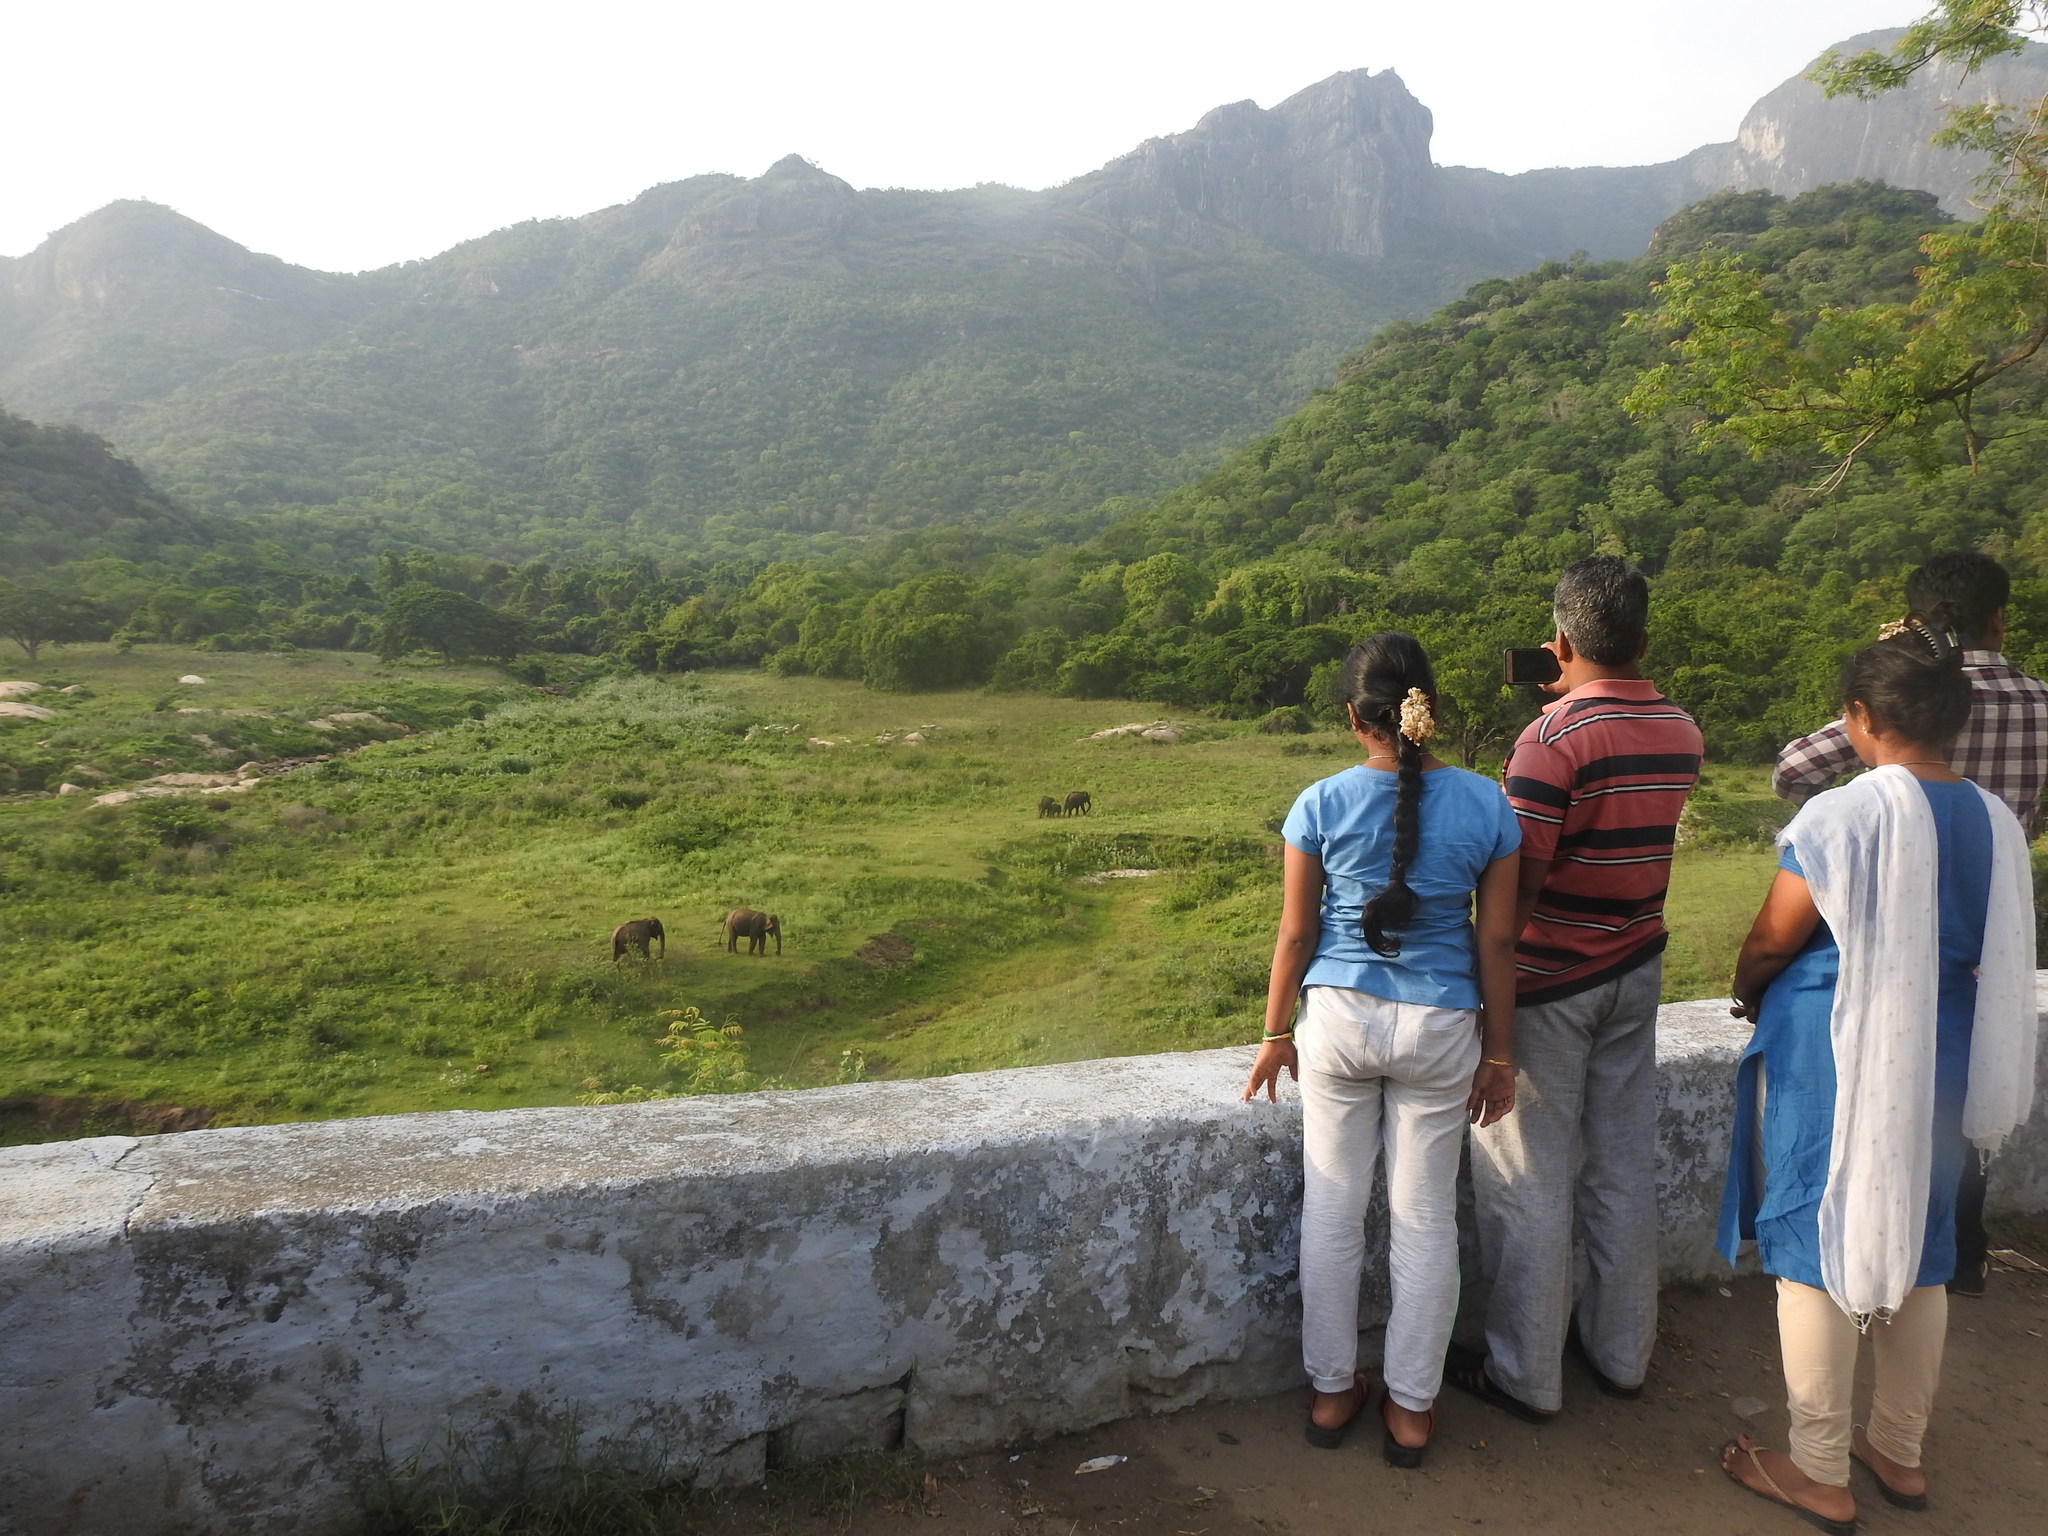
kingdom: Animalia
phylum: Chordata
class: Mammalia
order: Proboscidea
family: Elephantidae
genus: Elephas
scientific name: Elephas maximus
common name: Asian elephant
